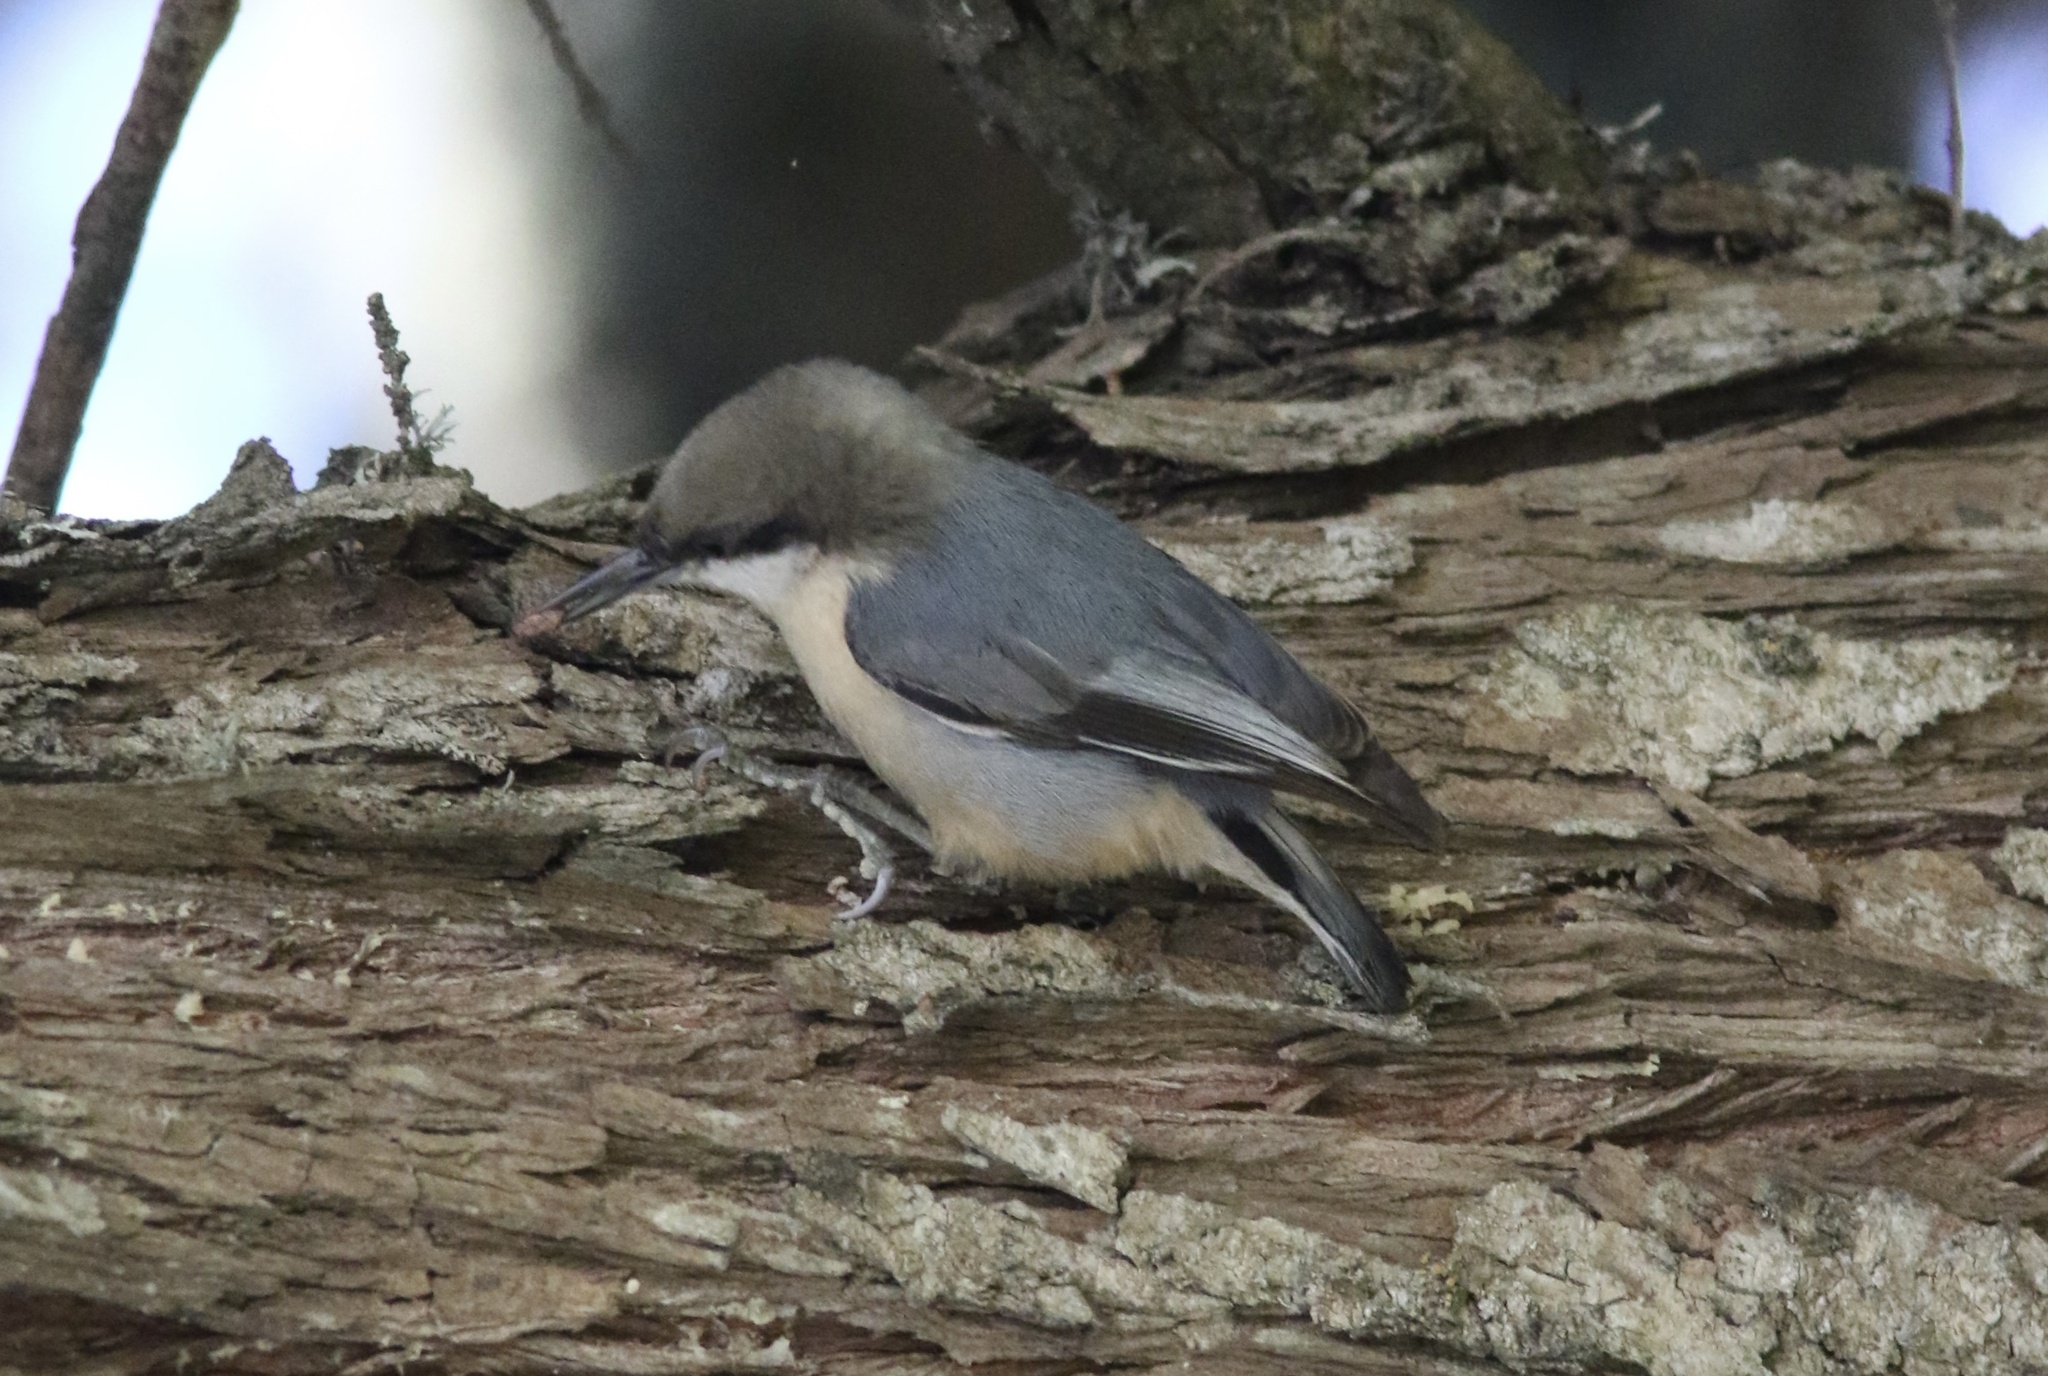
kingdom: Animalia
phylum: Chordata
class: Aves
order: Passeriformes
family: Sittidae
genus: Sitta
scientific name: Sitta pygmaea
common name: Pygmy nuthatch
